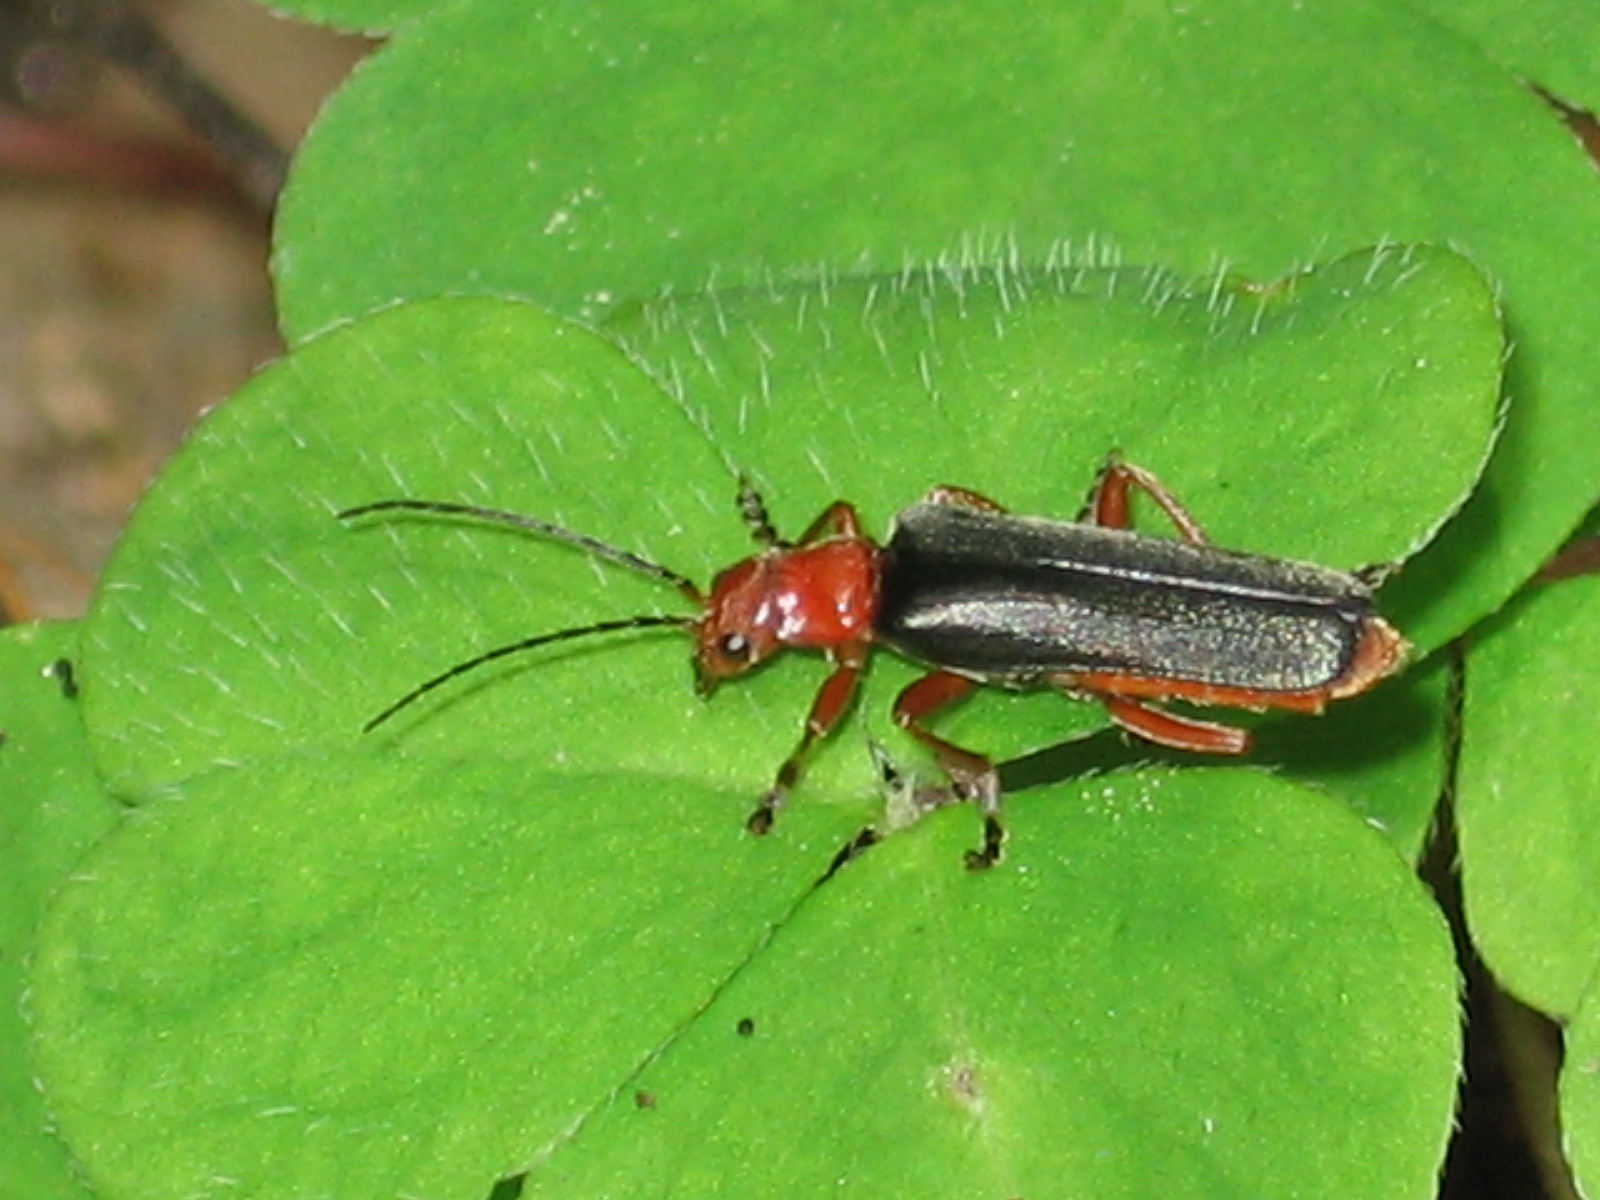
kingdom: Animalia
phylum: Arthropoda
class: Insecta
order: Coleoptera
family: Cantharidae
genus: Ancistronycha
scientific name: Ancistronycha tigurina
